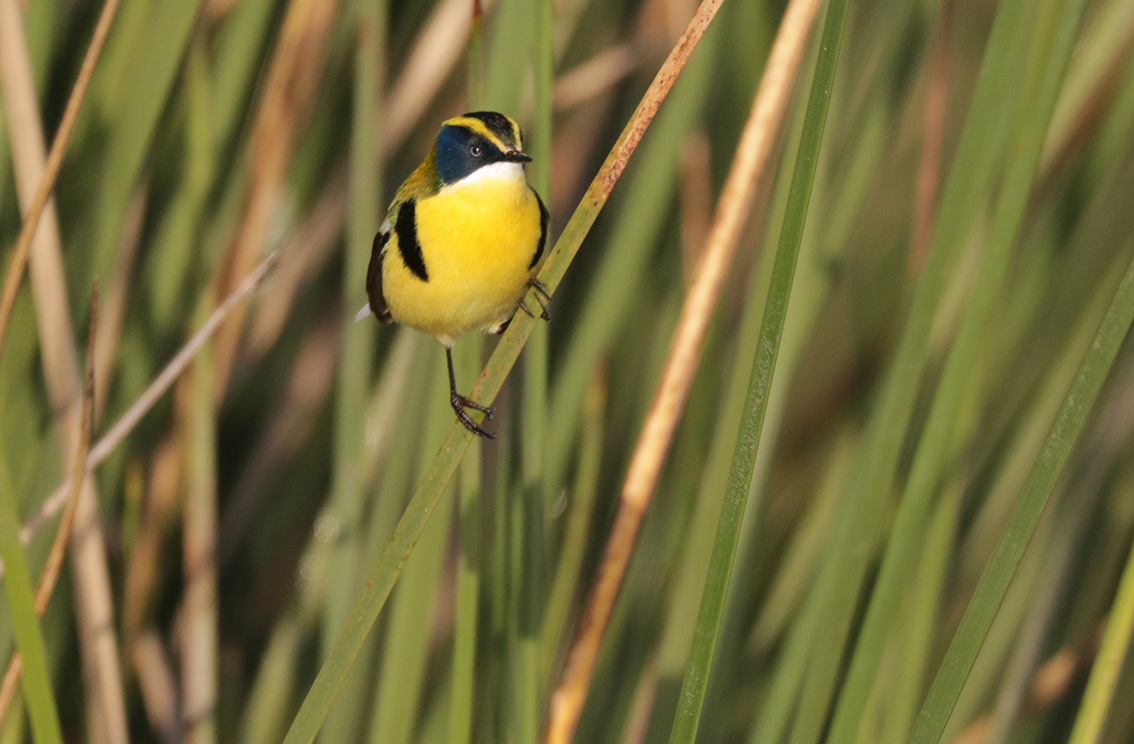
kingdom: Animalia
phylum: Chordata
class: Aves
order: Passeriformes
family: Tyrannidae
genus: Tachuris
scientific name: Tachuris rubrigastra
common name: Many-colored rush tyrant
